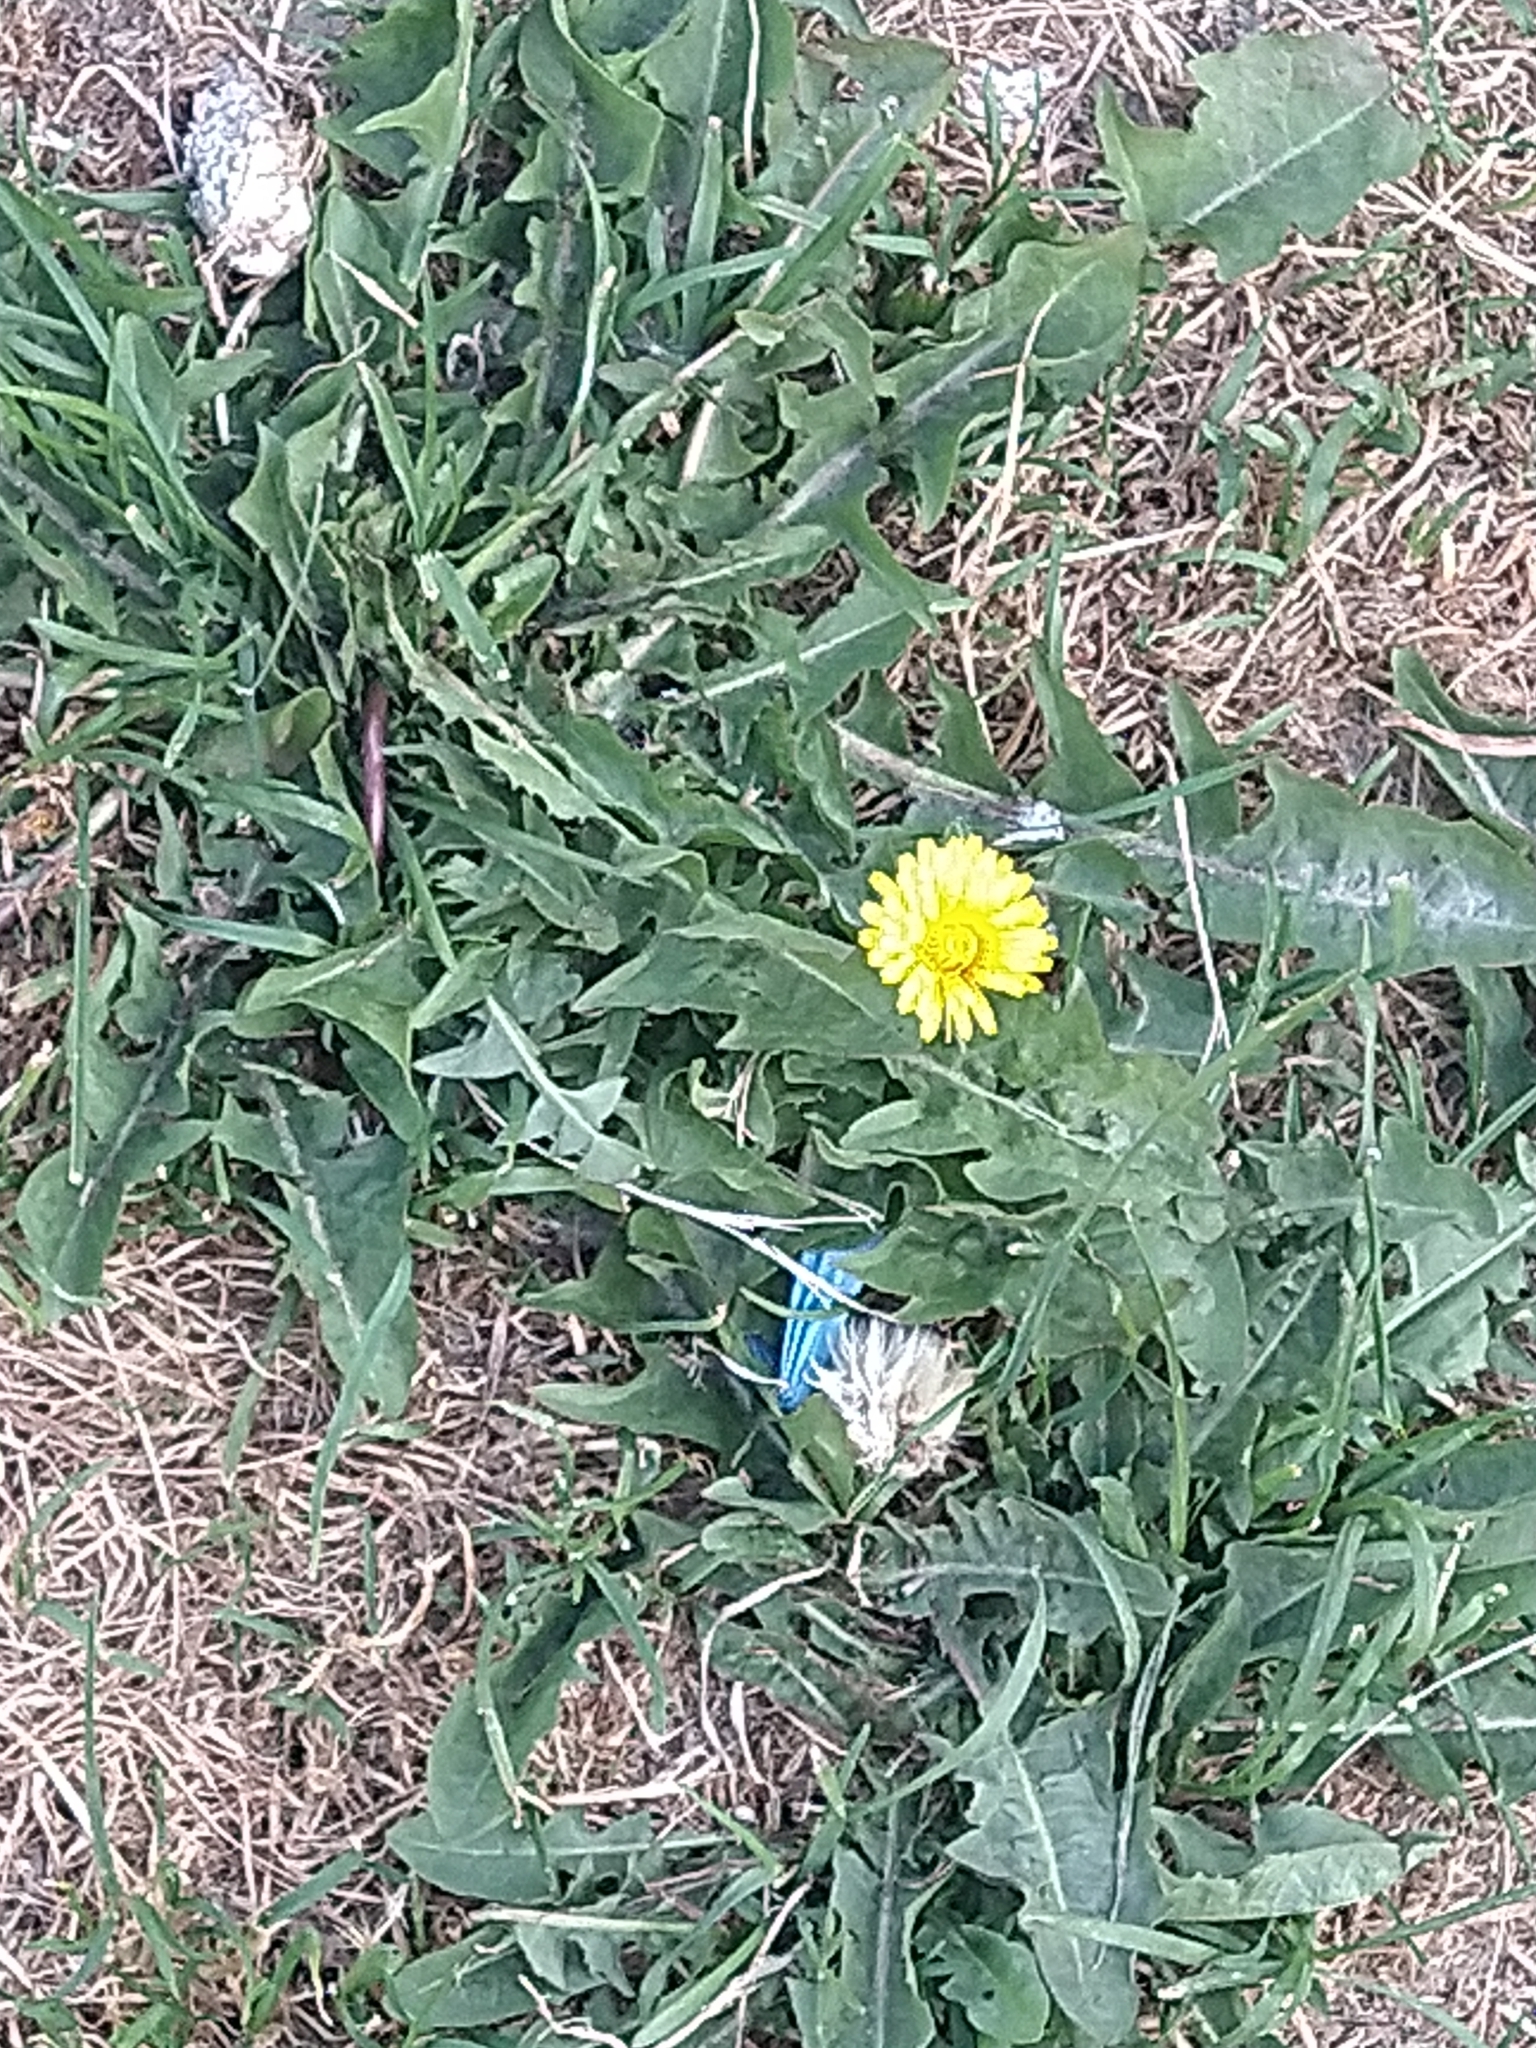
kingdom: Plantae
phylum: Tracheophyta
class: Magnoliopsida
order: Asterales
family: Asteraceae
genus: Taraxacum
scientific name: Taraxacum officinale
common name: Common dandelion
